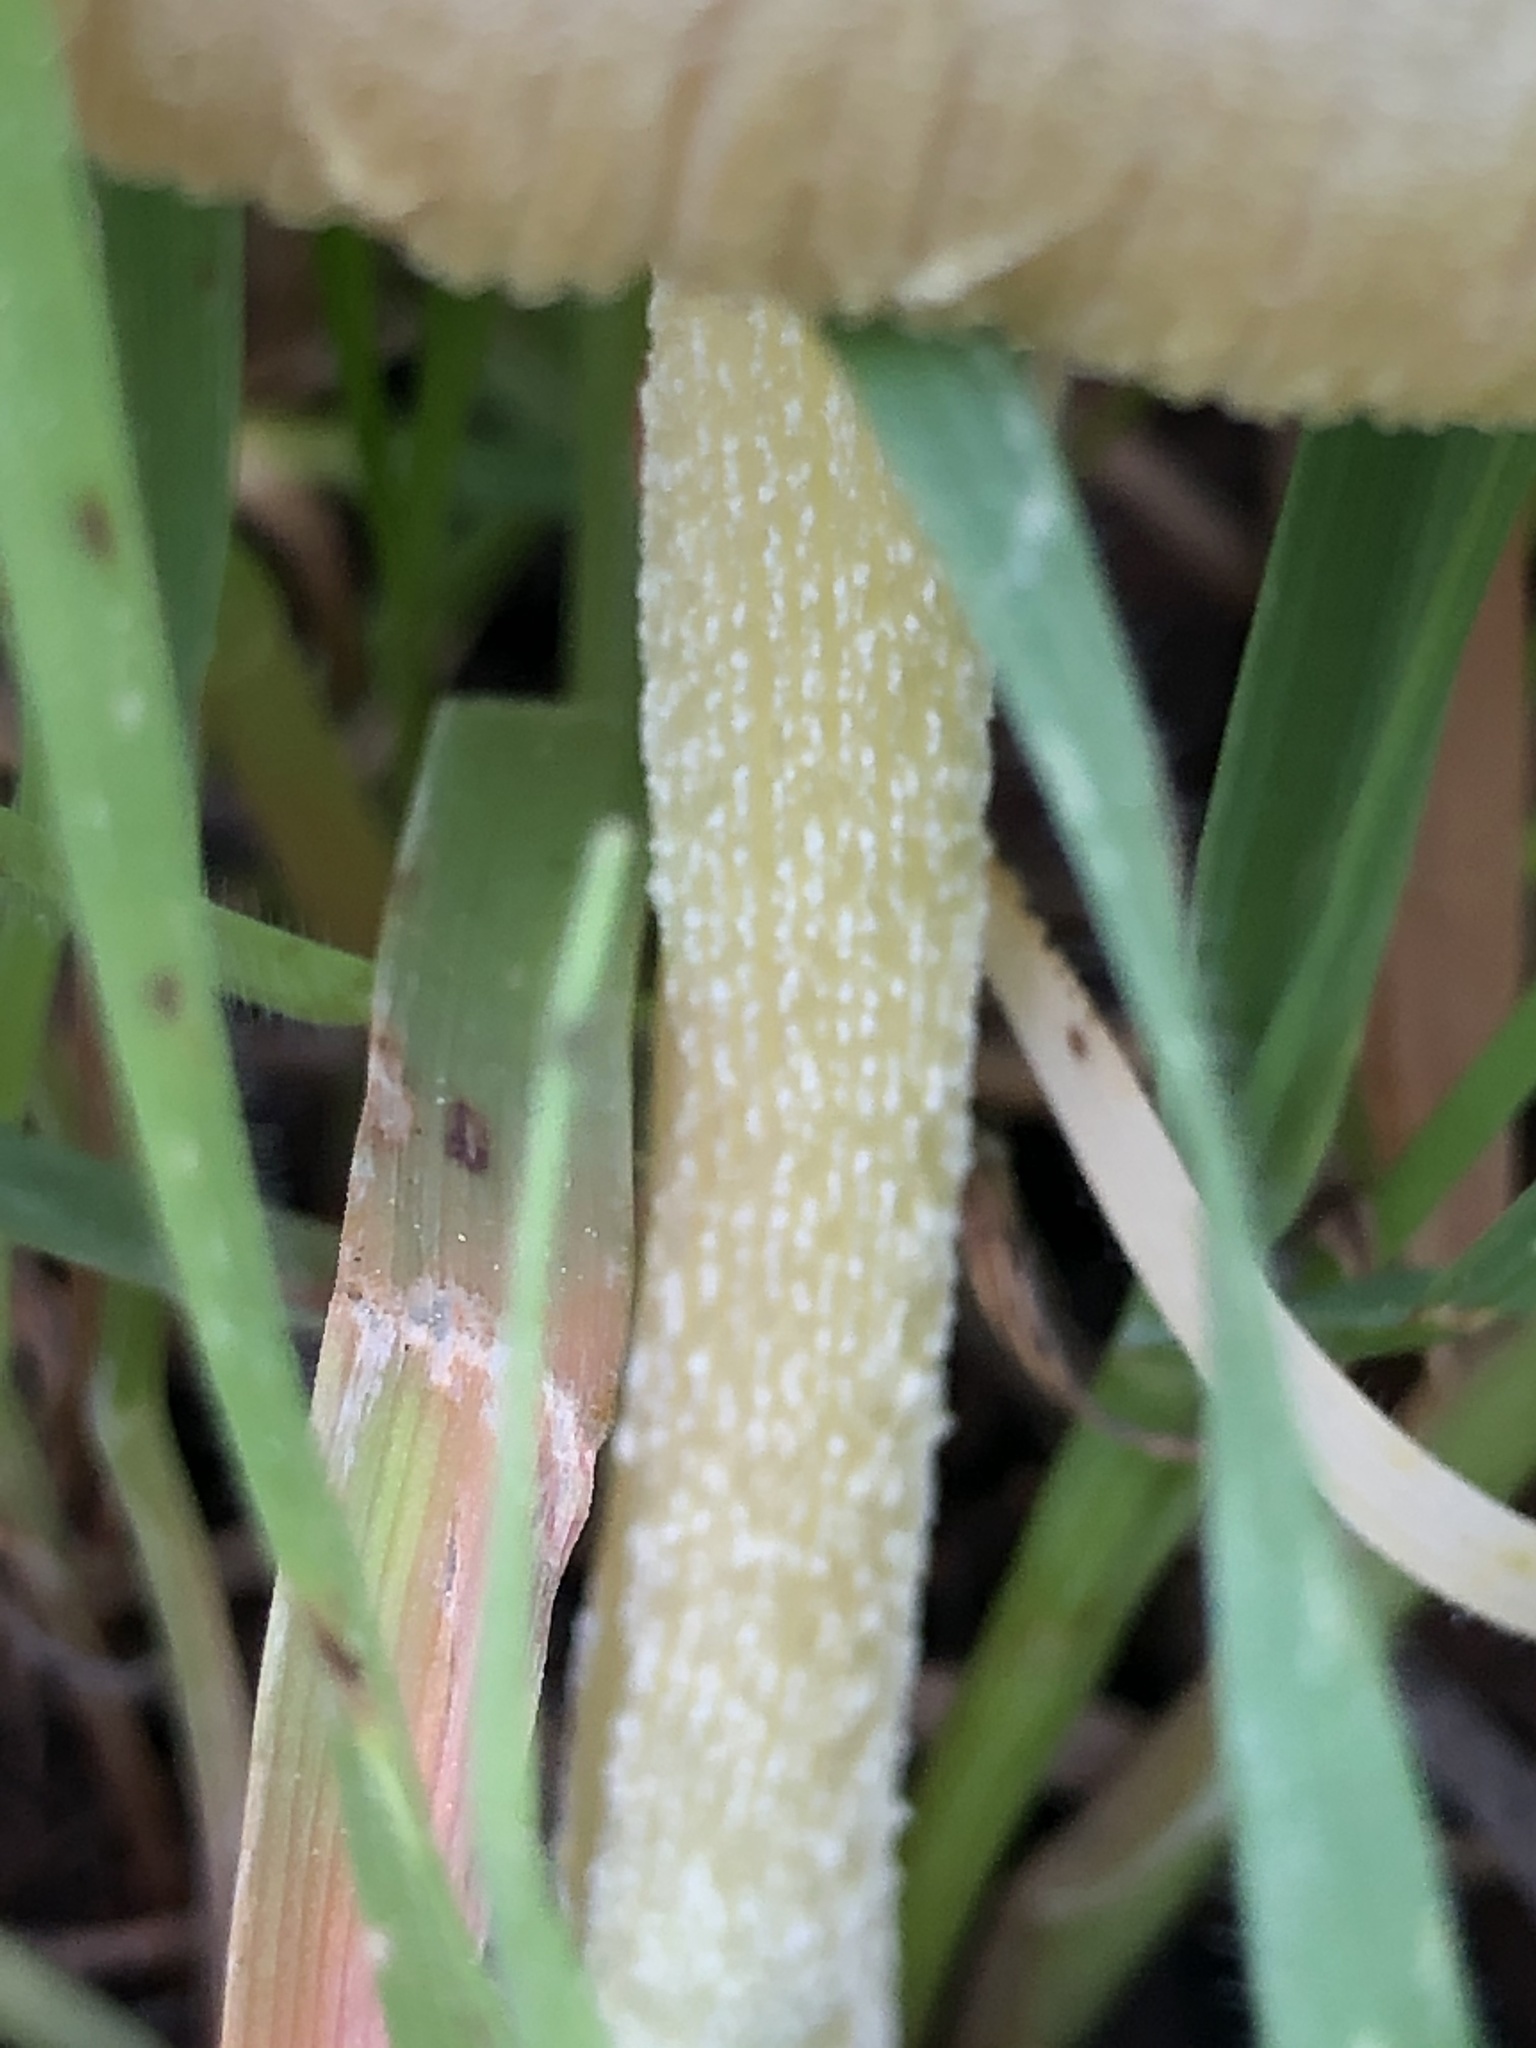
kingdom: Fungi
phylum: Basidiomycota
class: Agaricomycetes
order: Agaricales
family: Bolbitiaceae
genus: Bolbitius
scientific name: Bolbitius titubans
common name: Yellow fieldcap
